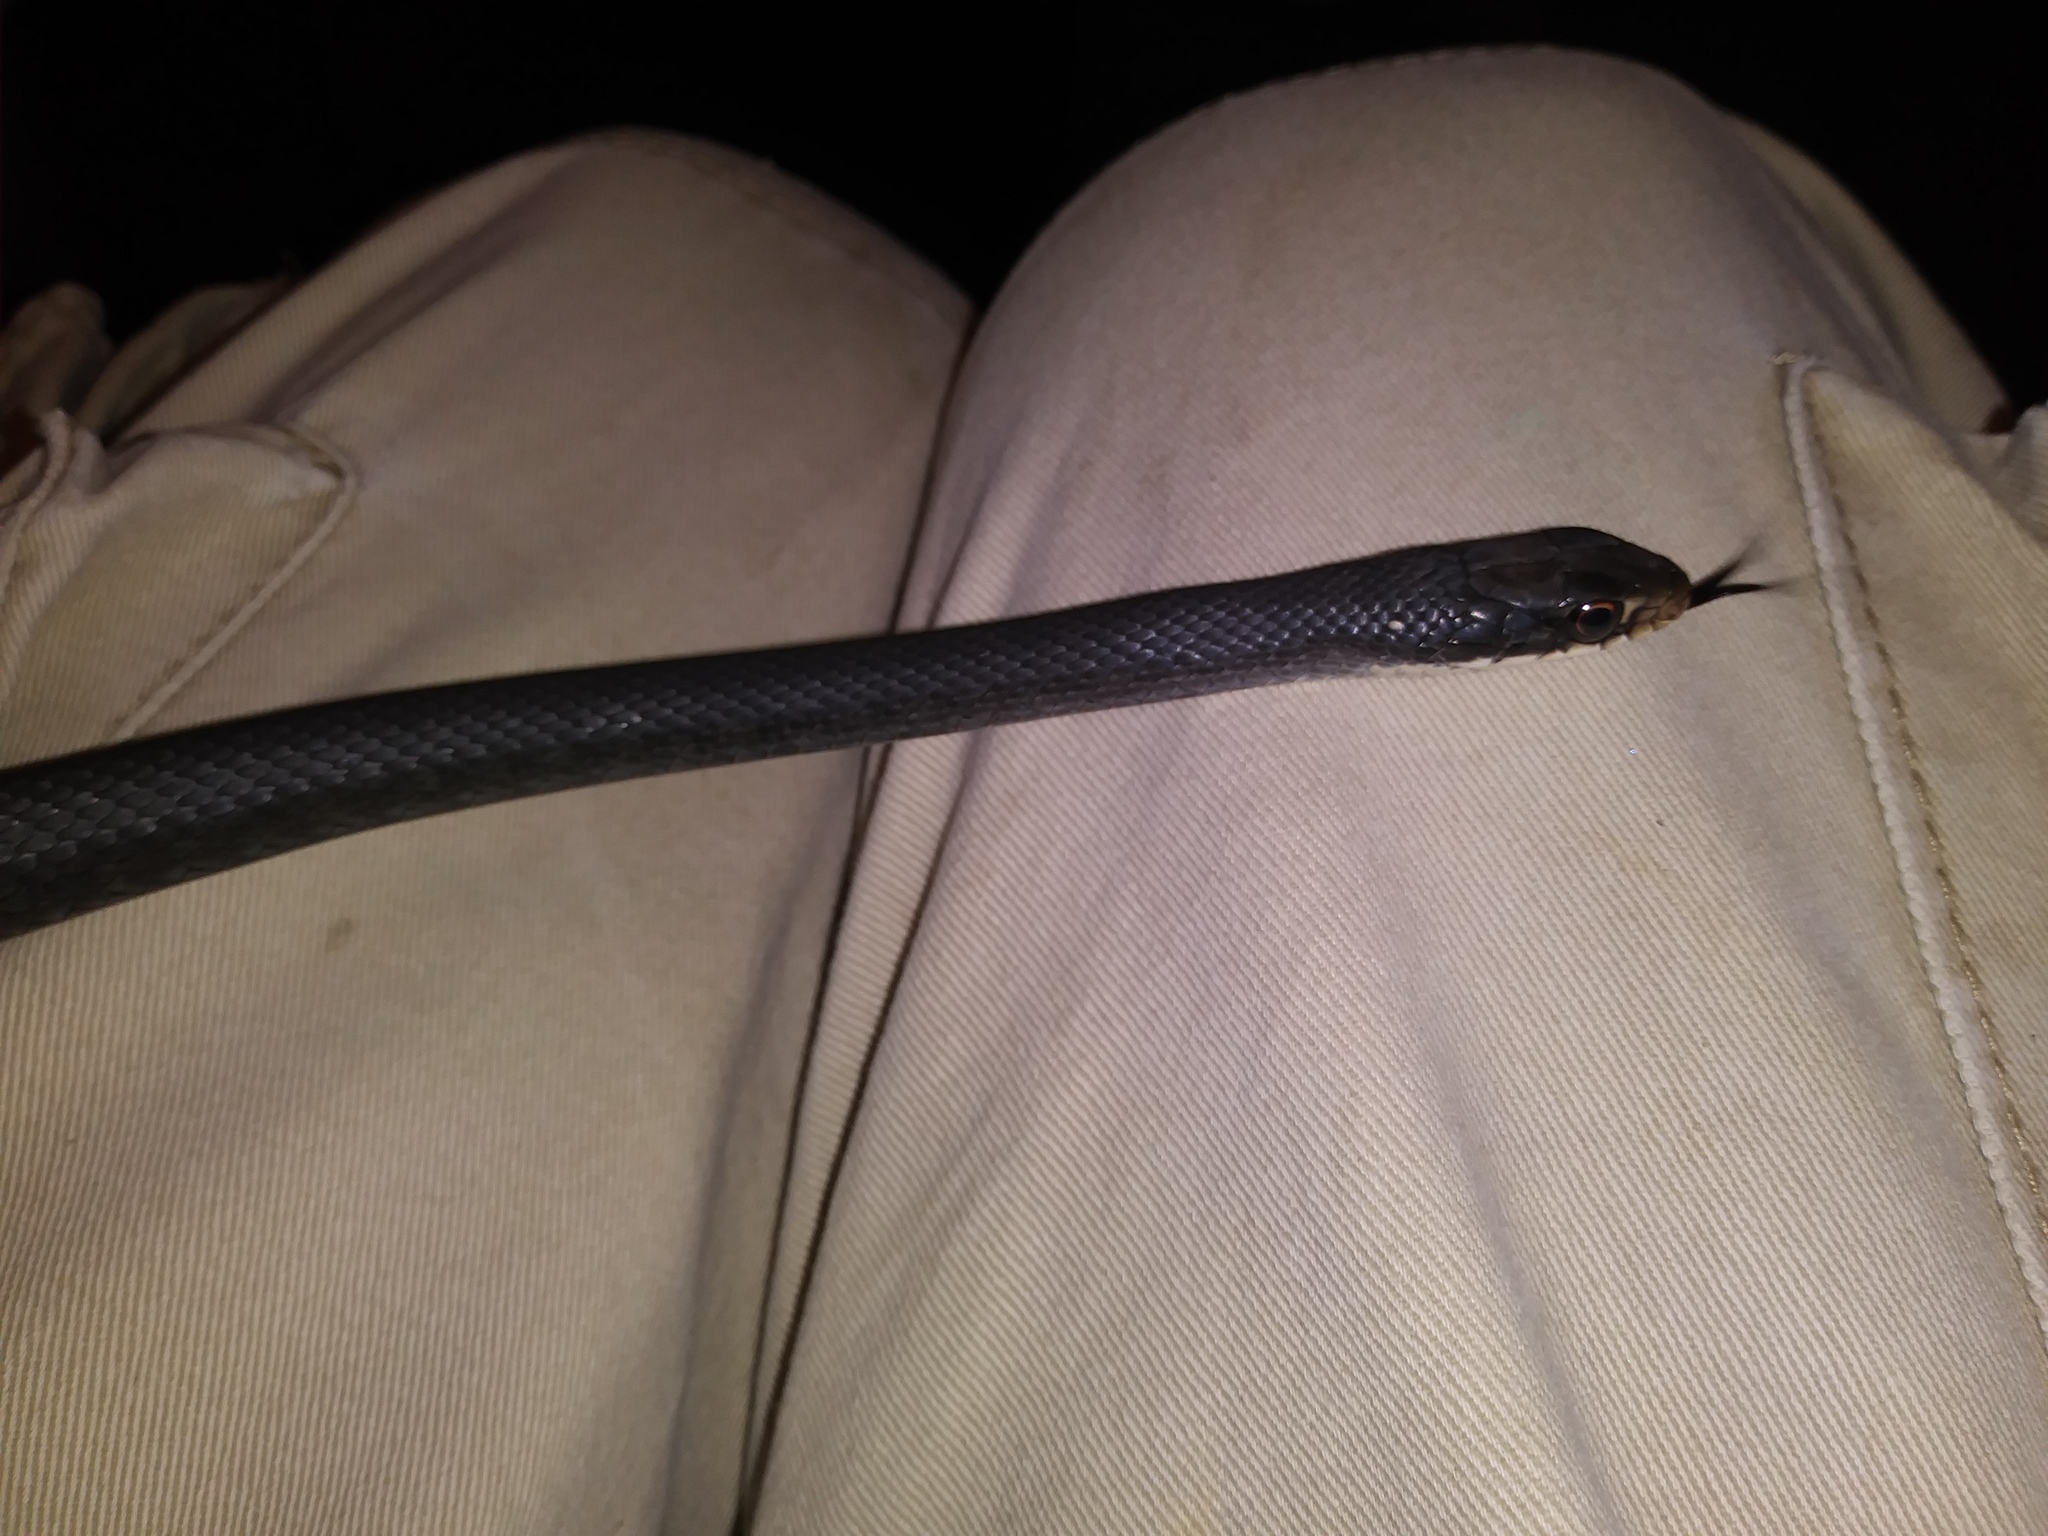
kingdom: Animalia
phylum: Chordata
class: Squamata
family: Colubridae
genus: Coluber
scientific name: Coluber constrictor
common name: Eastern racer
